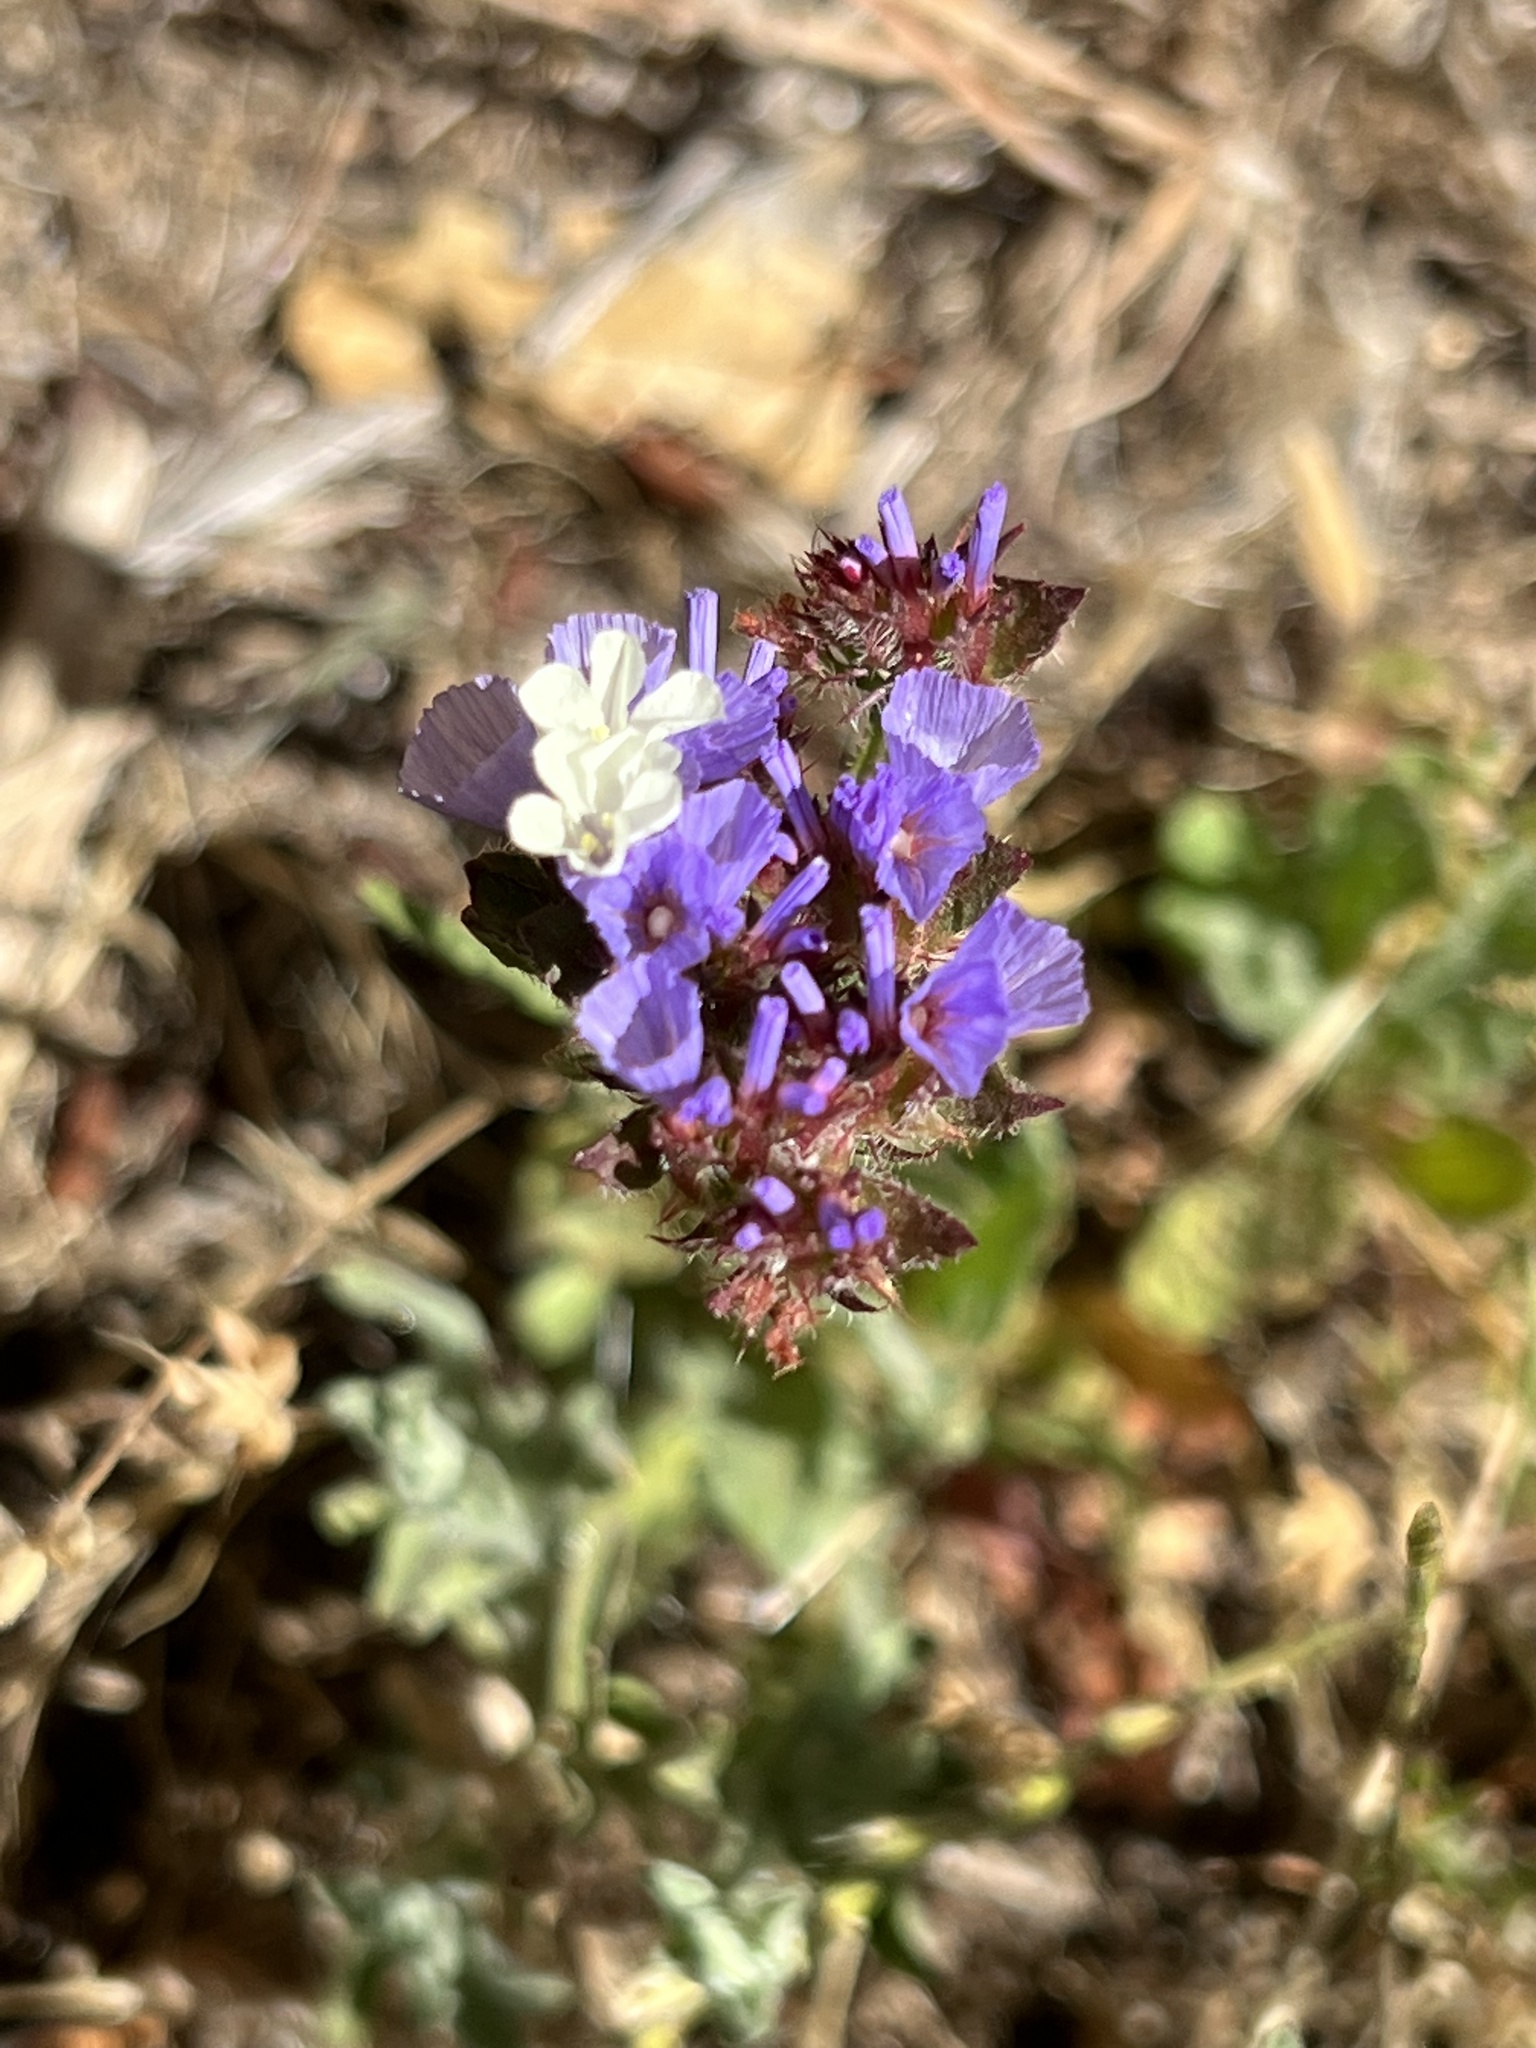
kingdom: Plantae
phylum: Tracheophyta
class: Magnoliopsida
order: Caryophyllales
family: Plumbaginaceae
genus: Limonium
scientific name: Limonium sinuatum
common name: Statice
